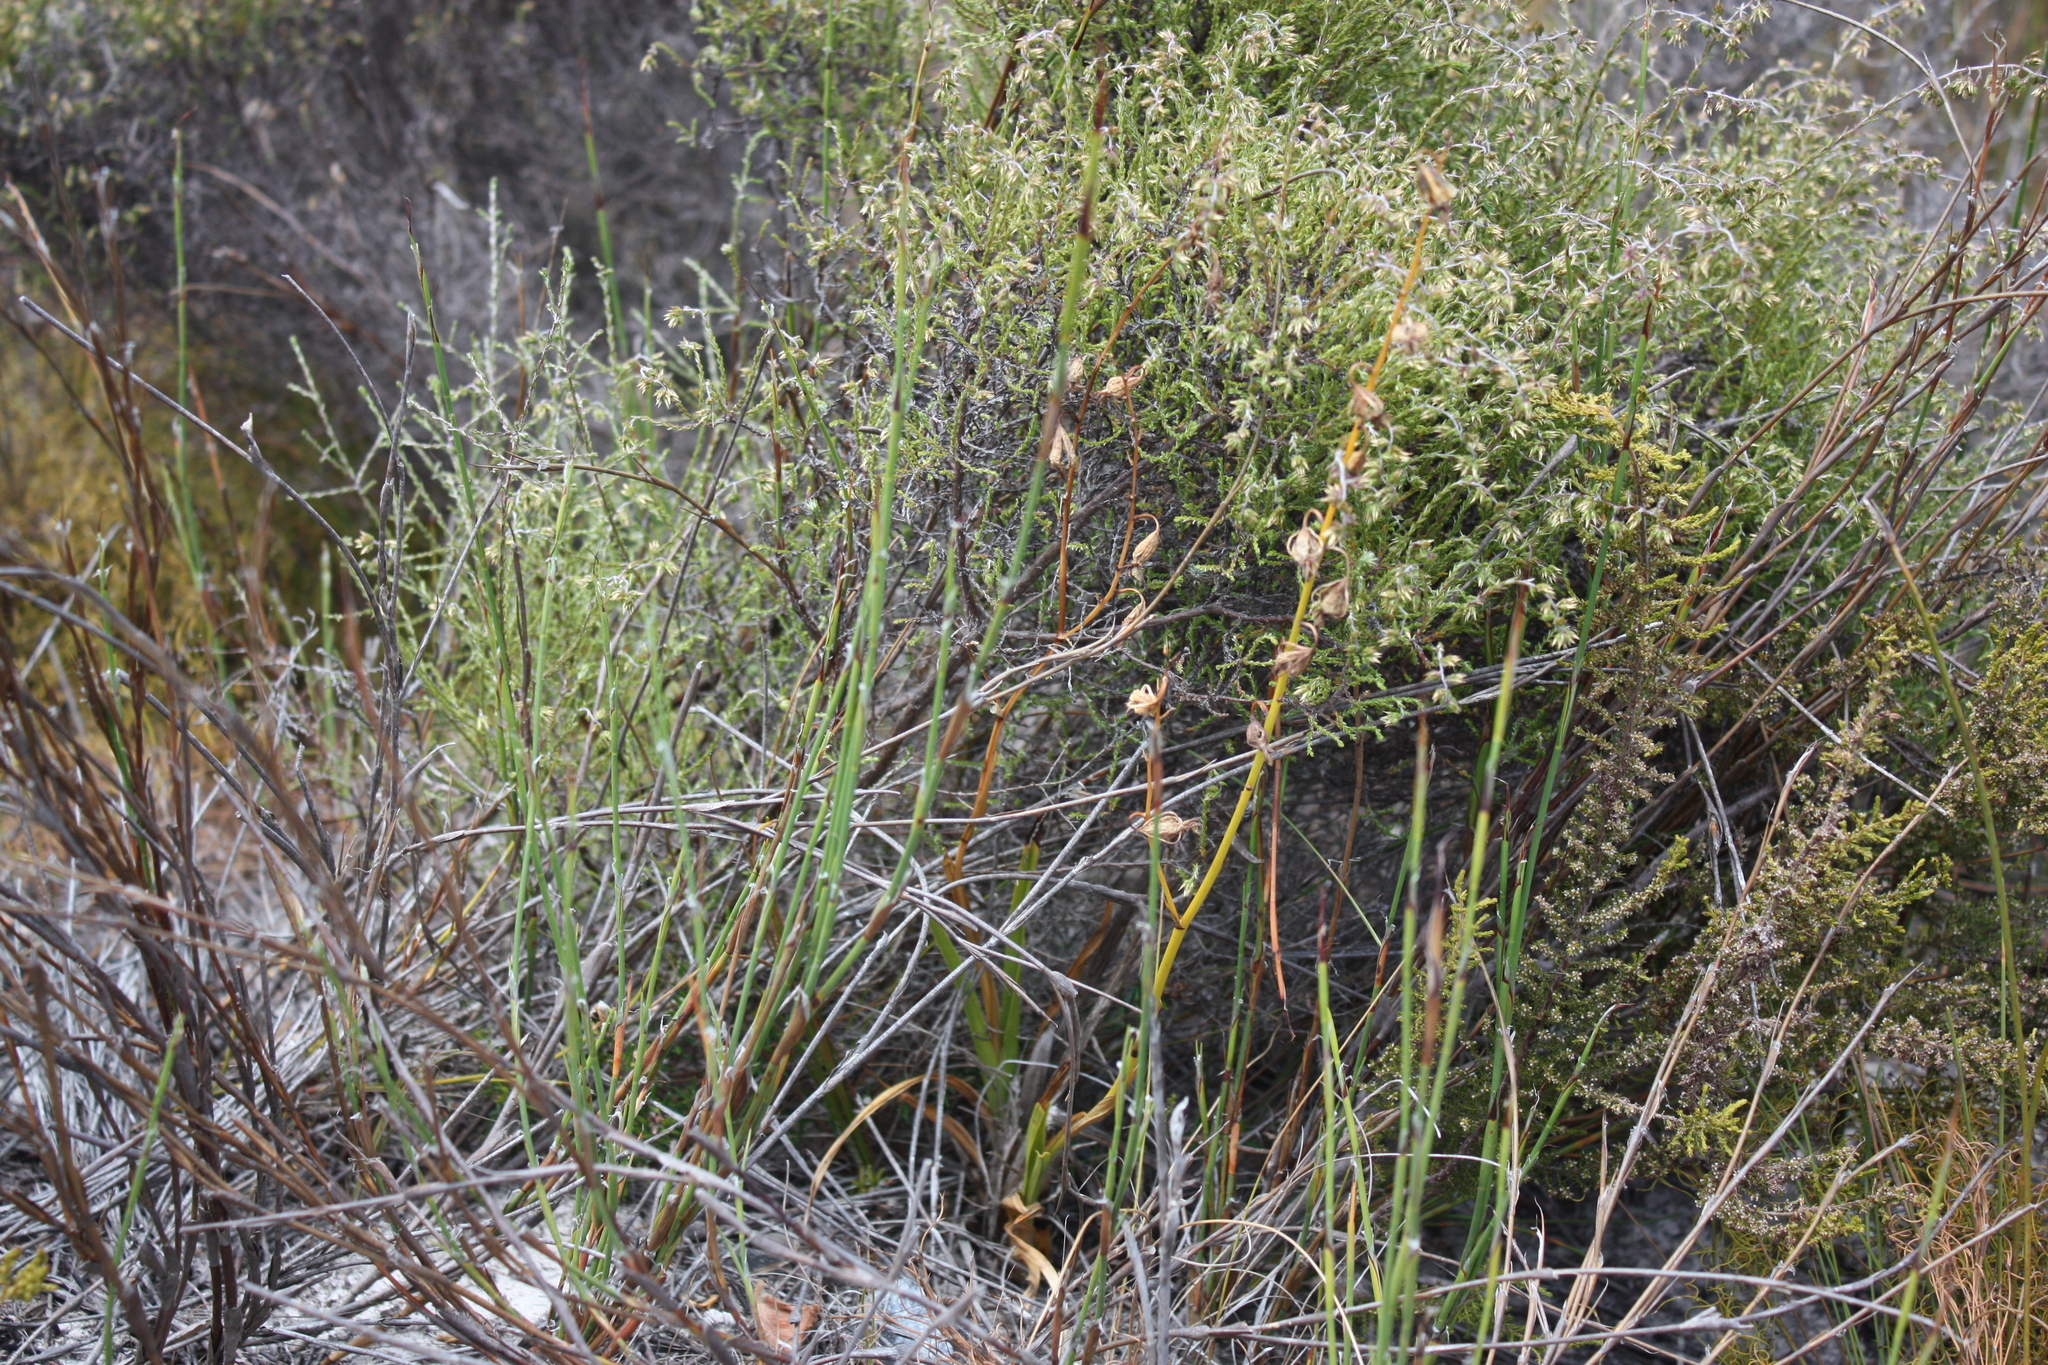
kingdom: Plantae
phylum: Tracheophyta
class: Liliopsida
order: Asparagales
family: Orchidaceae
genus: Eulophia
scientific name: Eulophia lamellata
